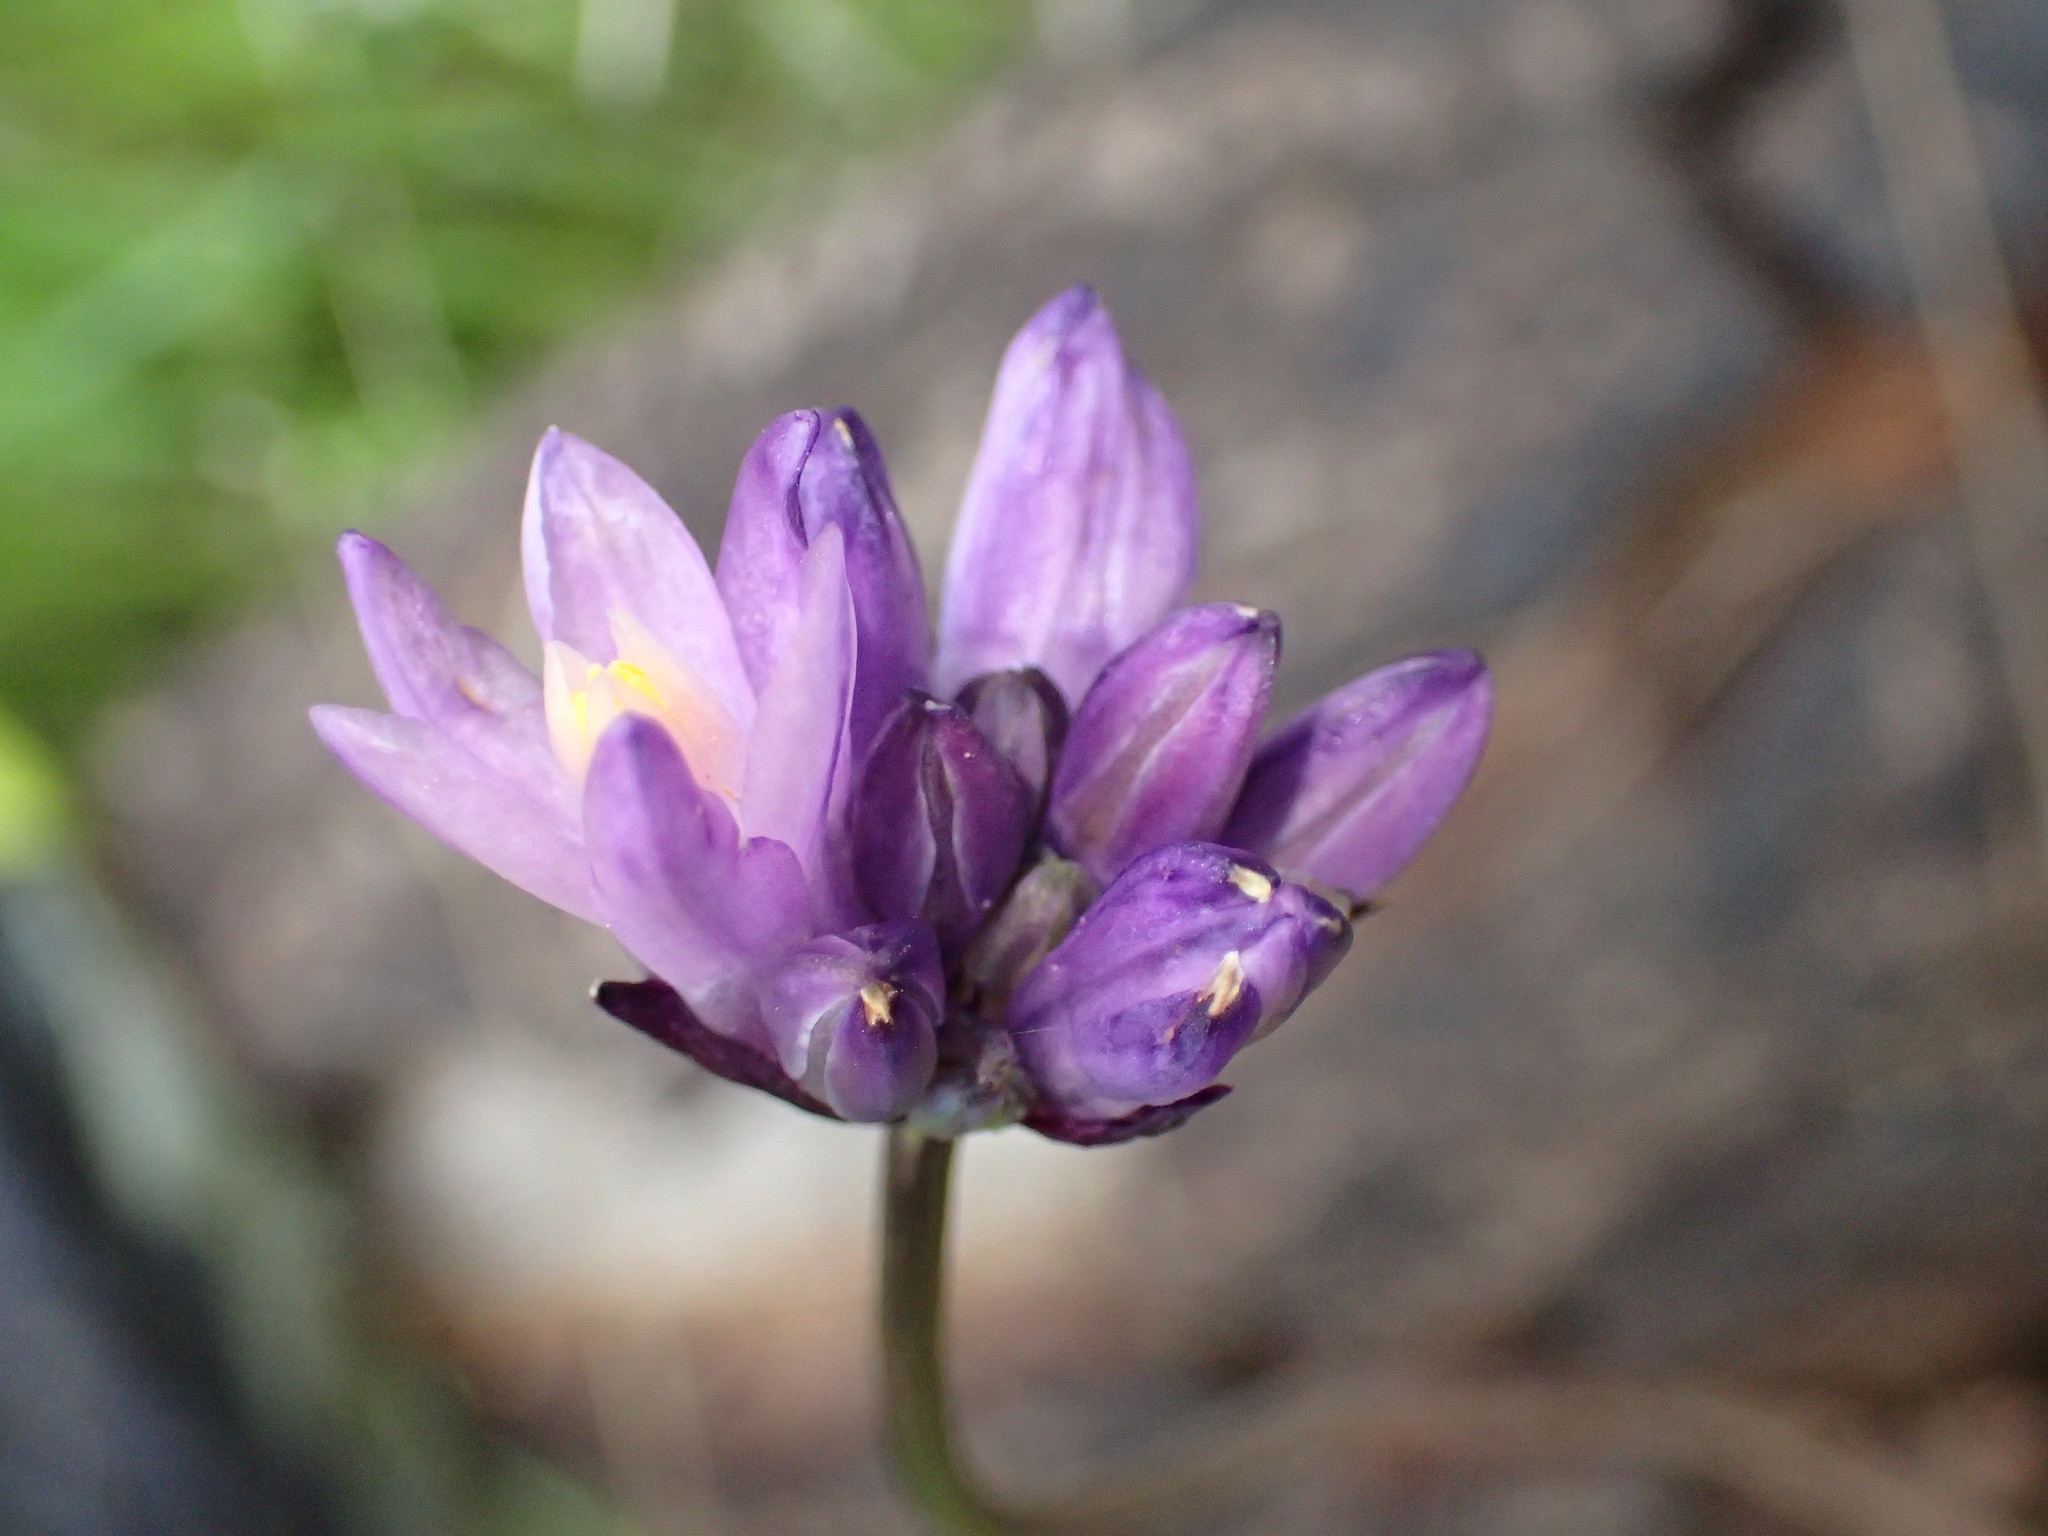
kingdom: Plantae
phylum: Tracheophyta
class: Liliopsida
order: Asparagales
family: Asparagaceae
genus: Dipterostemon
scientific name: Dipterostemon capitatus
